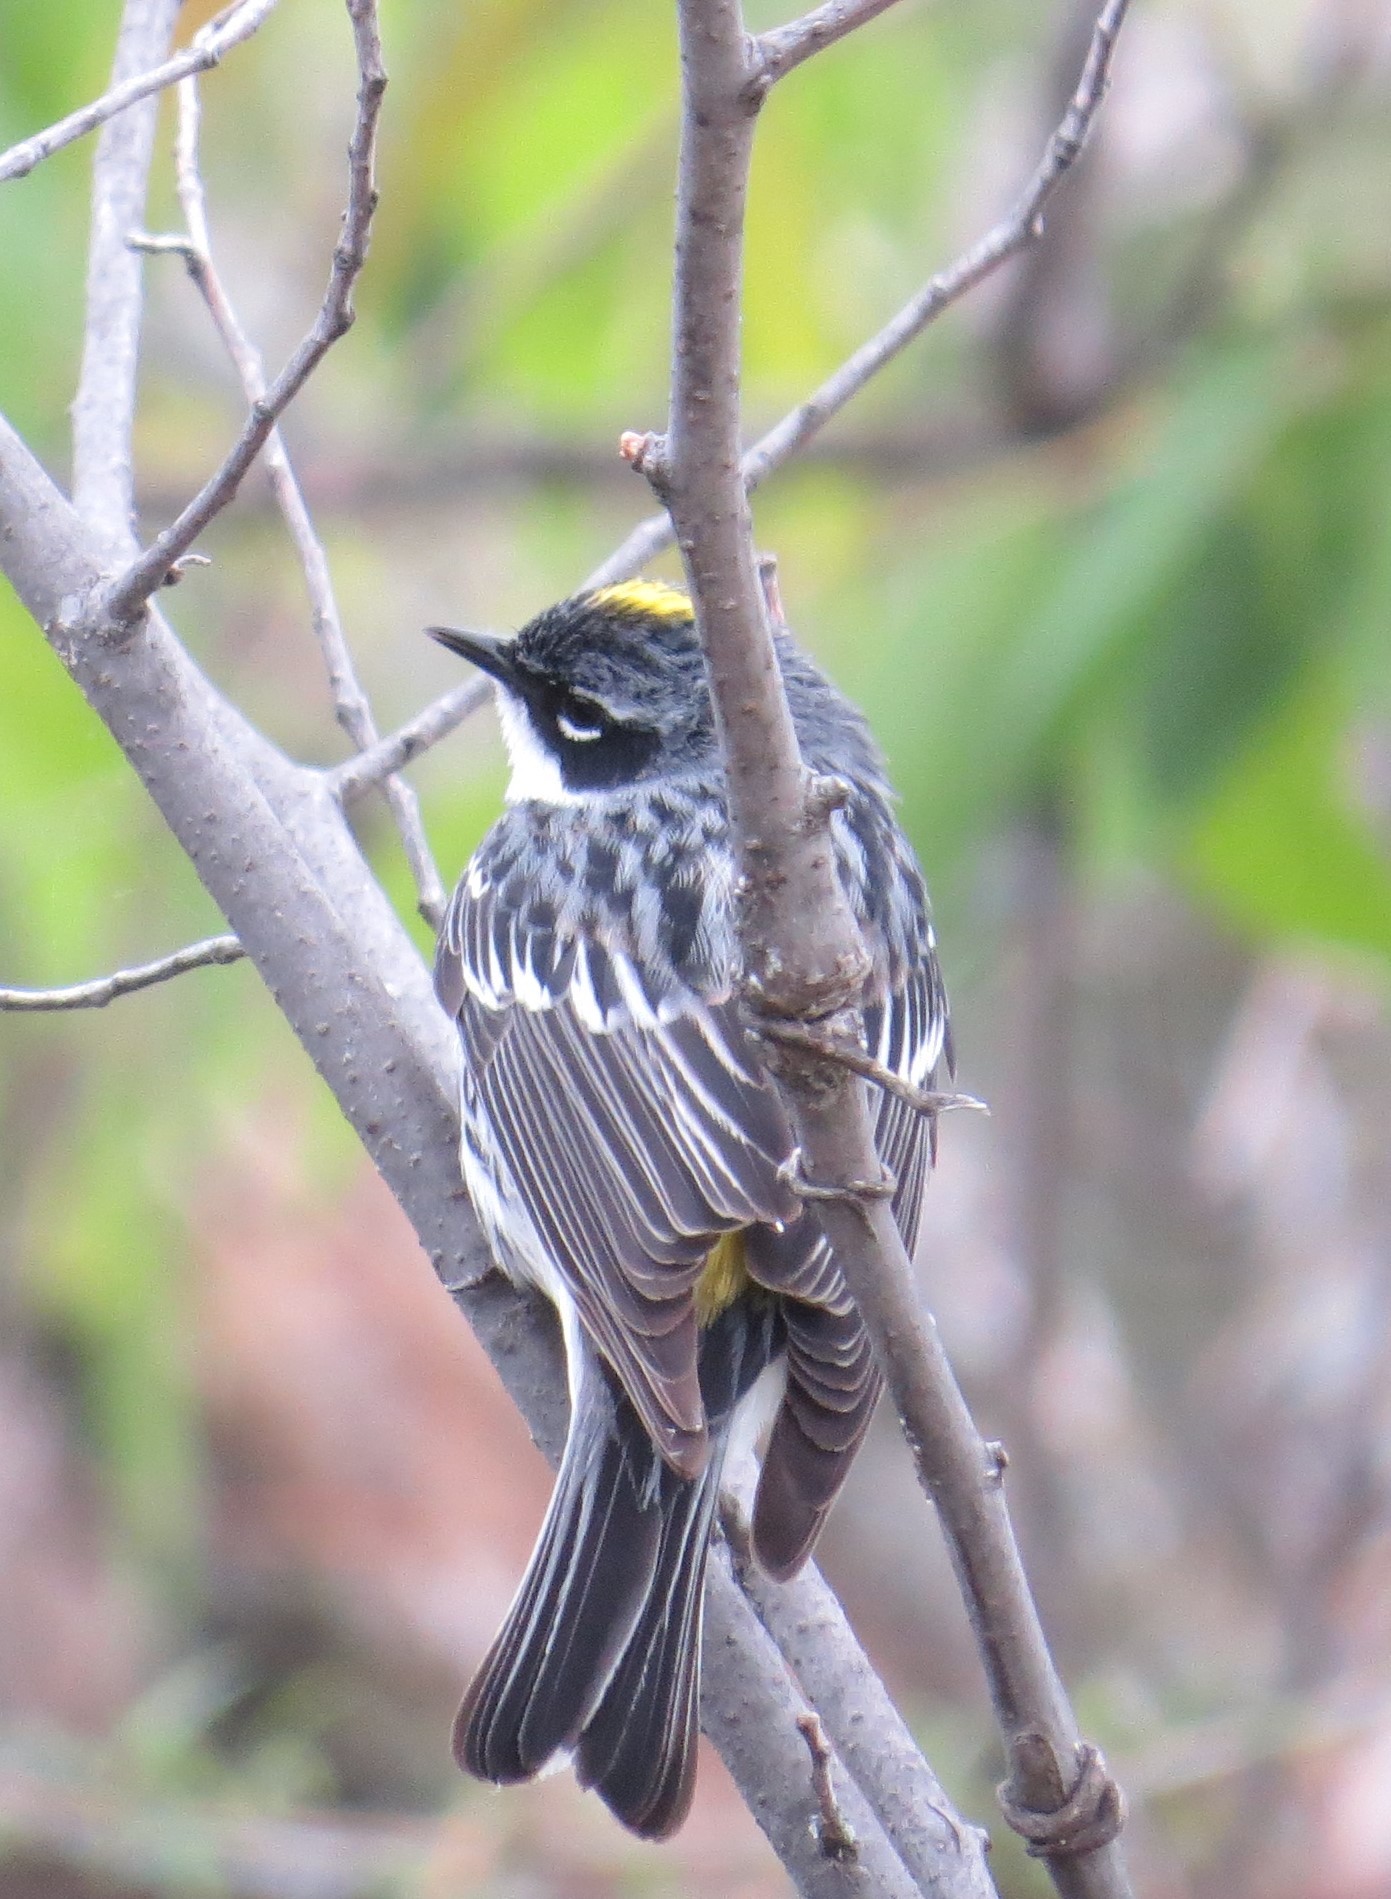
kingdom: Animalia
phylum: Chordata
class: Aves
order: Passeriformes
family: Parulidae
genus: Setophaga
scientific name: Setophaga coronata
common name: Myrtle warbler
